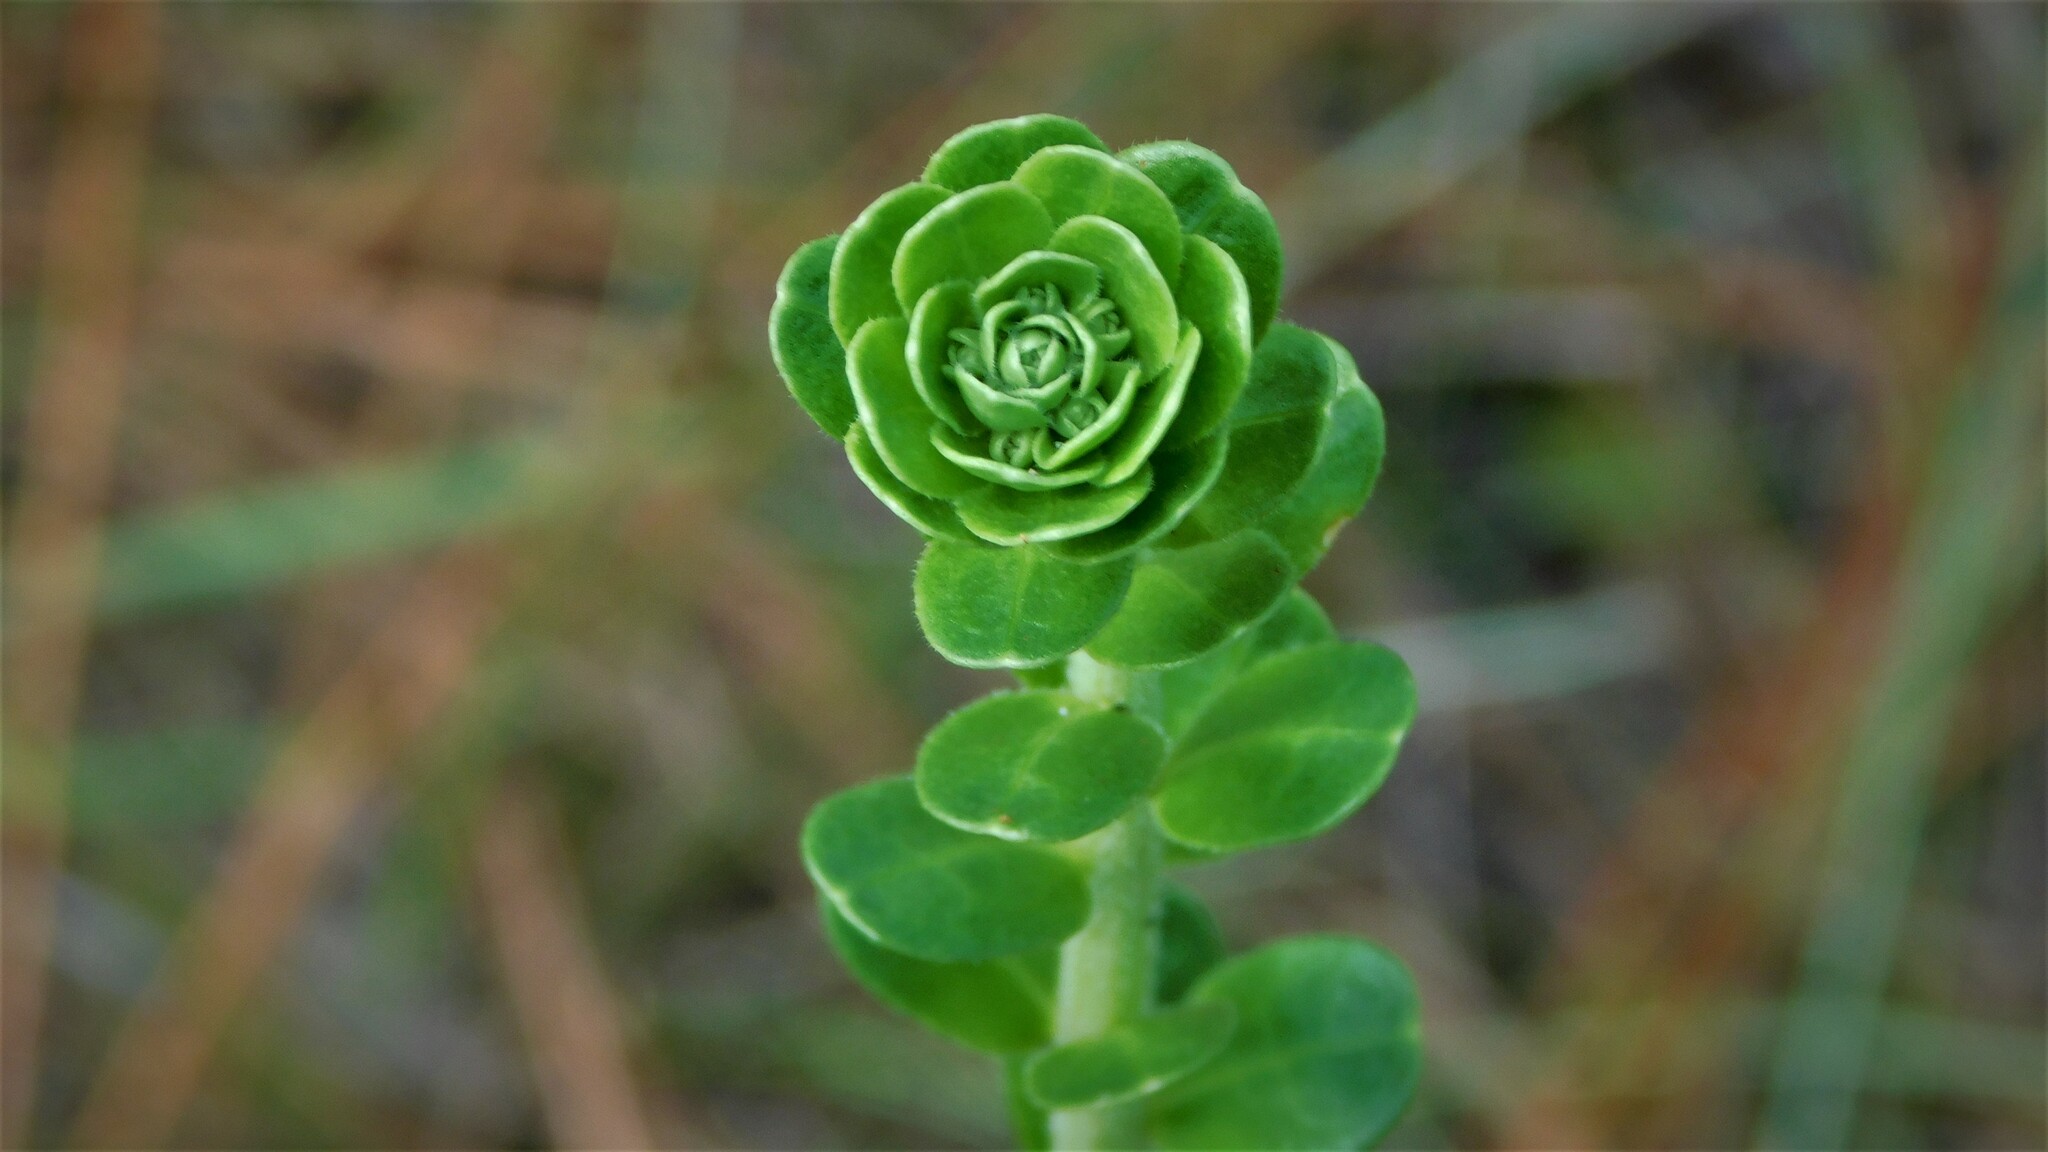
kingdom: Plantae
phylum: Tracheophyta
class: Magnoliopsida
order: Asterales
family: Asteraceae
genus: Carphephorus
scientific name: Carphephorus corymbosus
